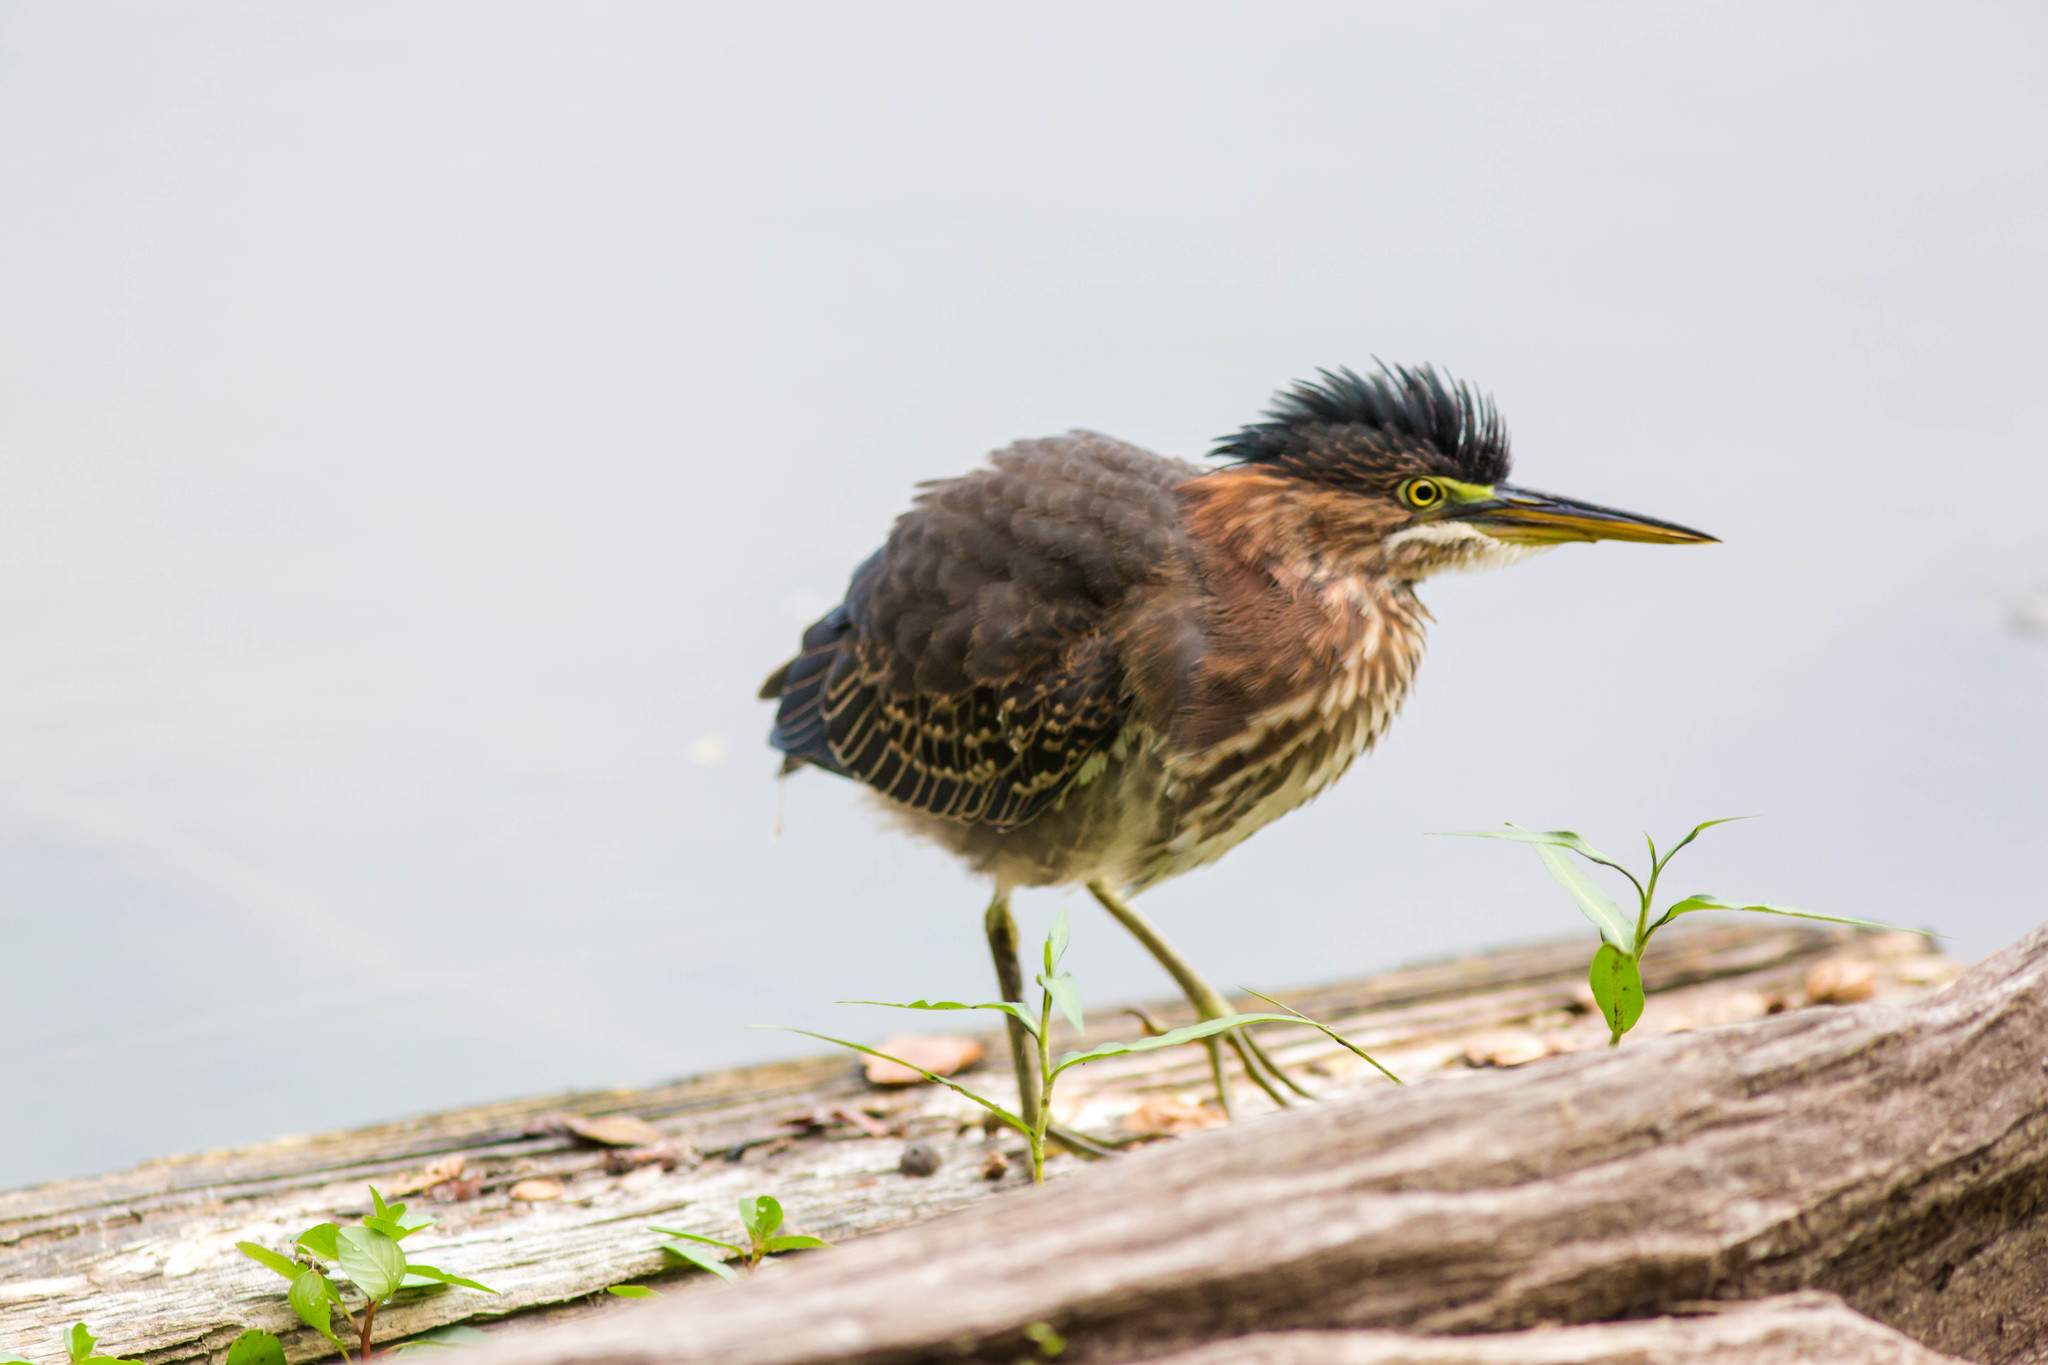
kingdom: Animalia
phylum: Chordata
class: Aves
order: Pelecaniformes
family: Ardeidae
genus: Butorides
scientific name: Butorides virescens
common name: Green heron
